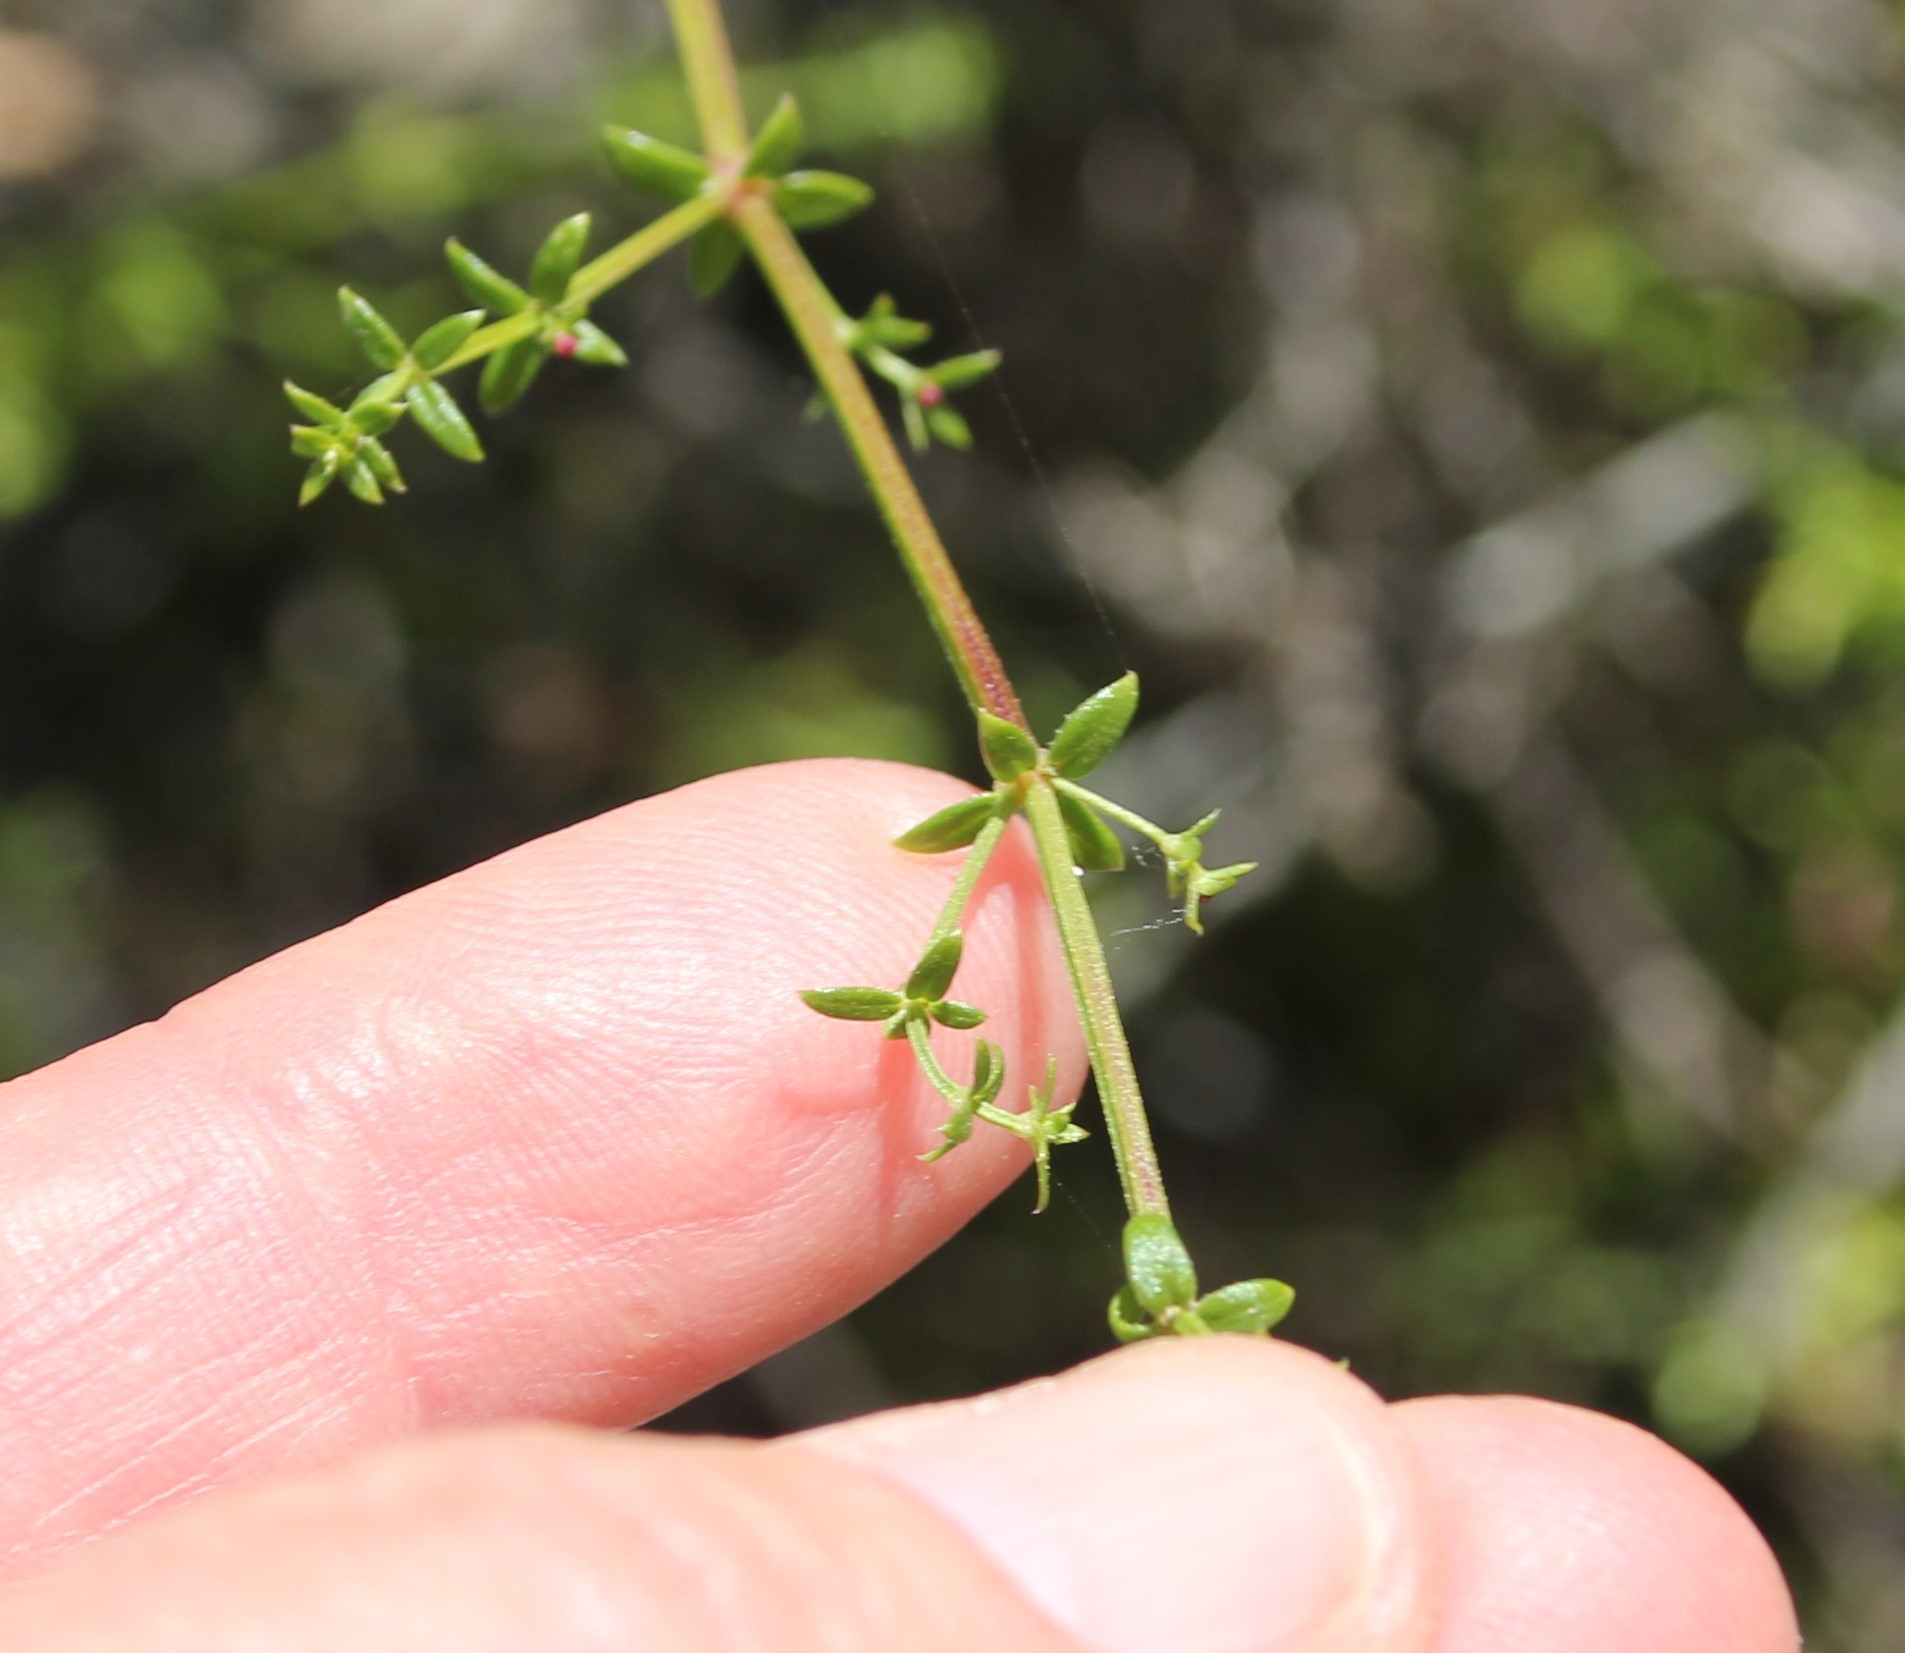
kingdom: Plantae
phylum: Tracheophyta
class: Magnoliopsida
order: Gentianales
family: Rubiaceae
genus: Galium
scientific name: Galium nuttallii
